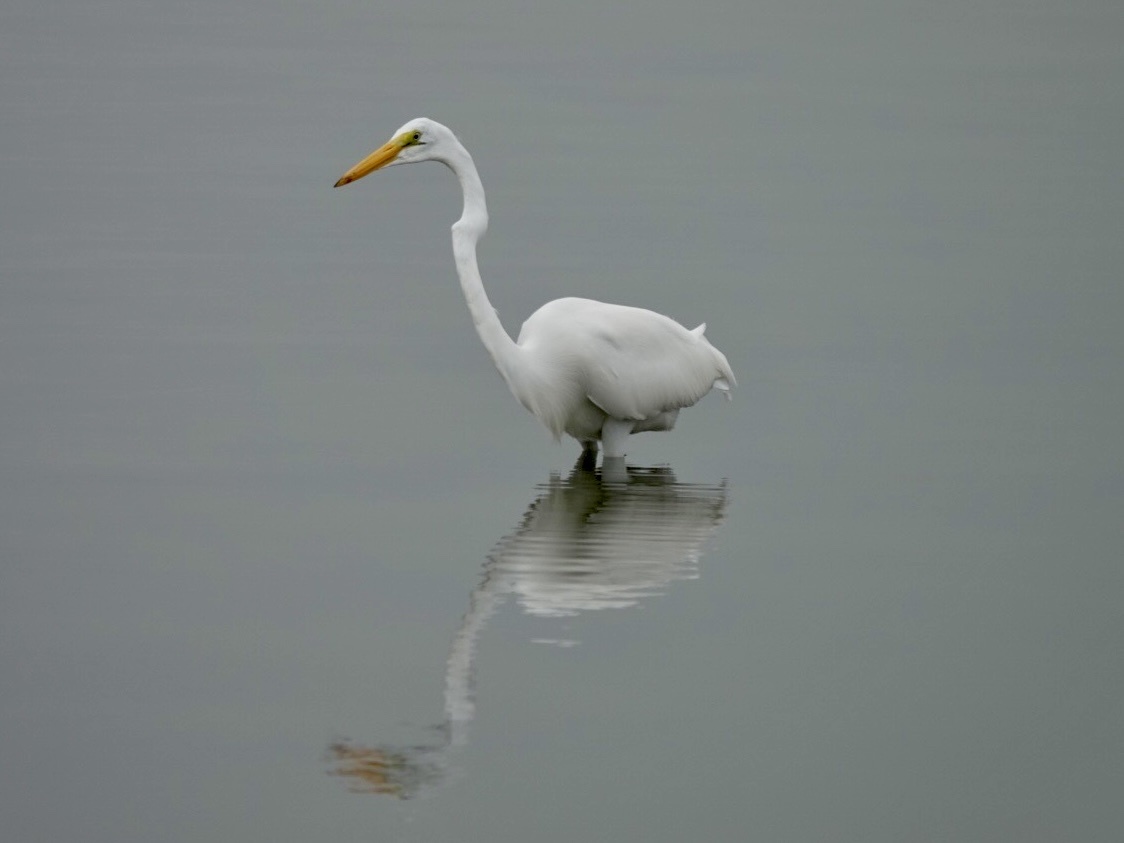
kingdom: Animalia
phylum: Chordata
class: Aves
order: Pelecaniformes
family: Ardeidae
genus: Ardea
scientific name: Ardea alba
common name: Great egret
